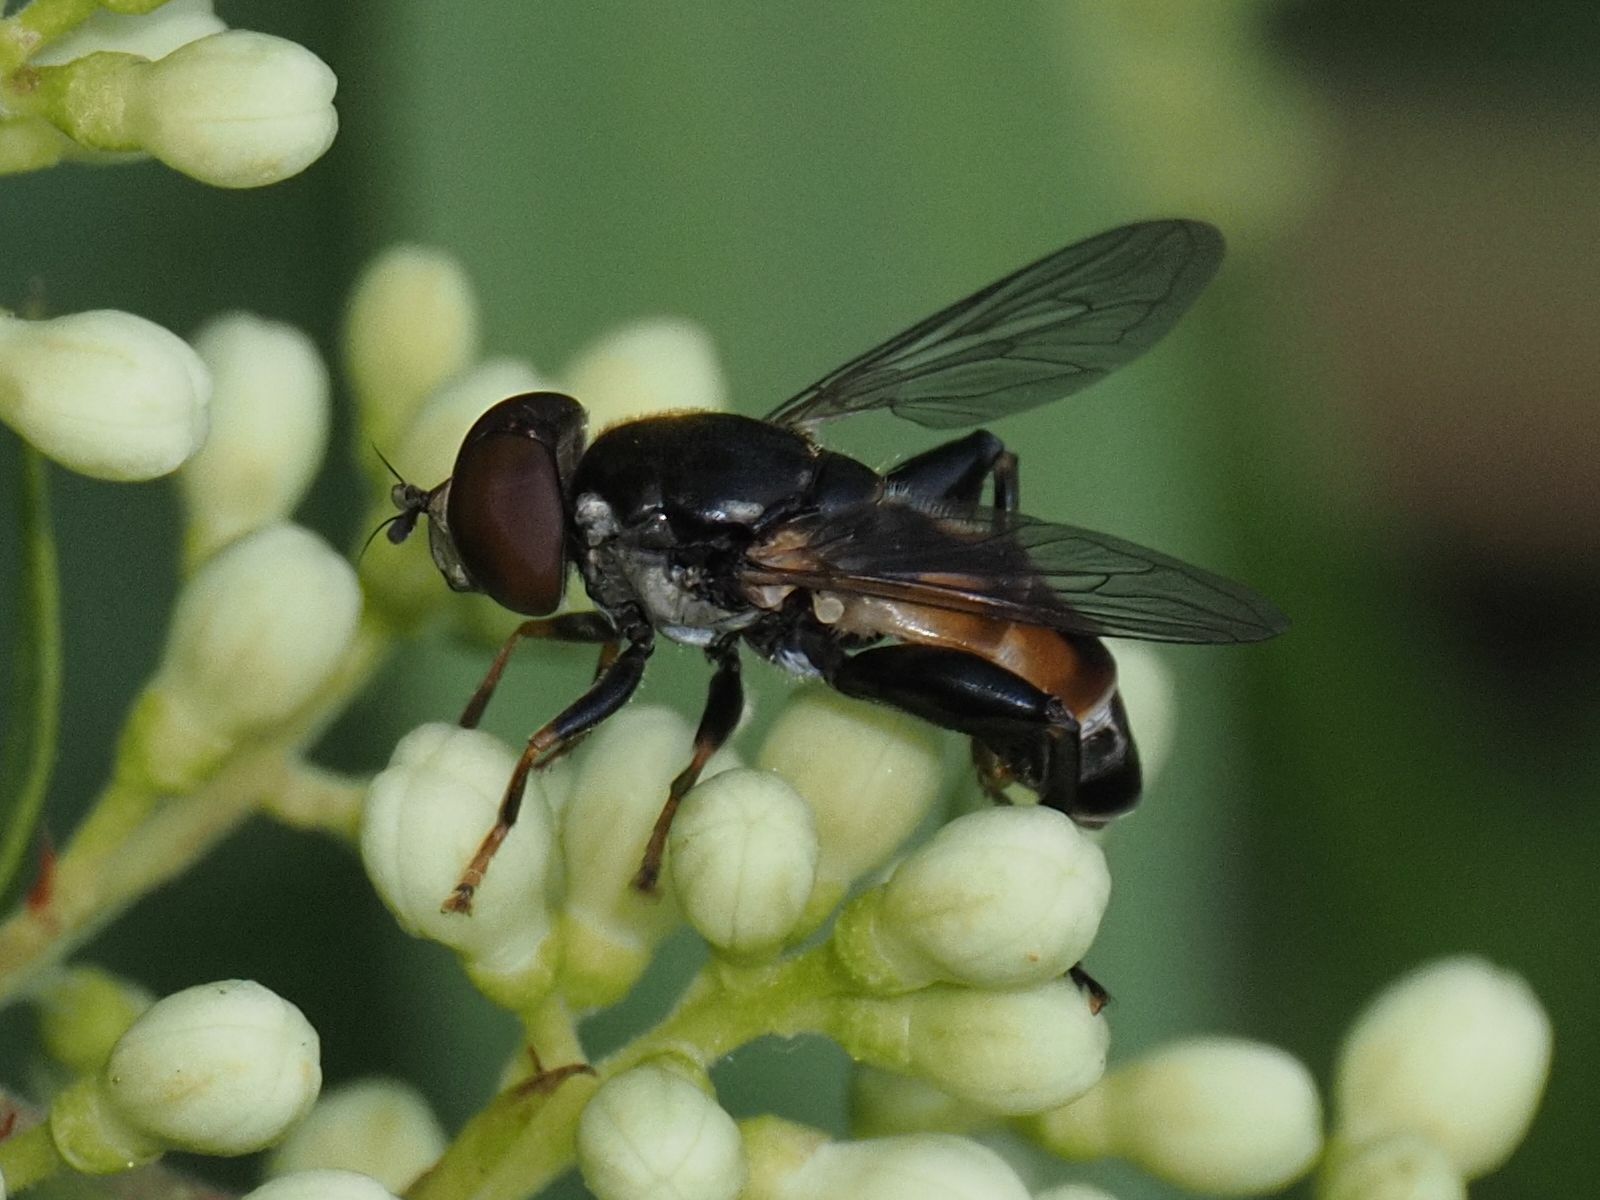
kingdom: Animalia
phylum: Arthropoda
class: Insecta
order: Diptera
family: Syrphidae
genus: Tropidia
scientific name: Tropidia scita
